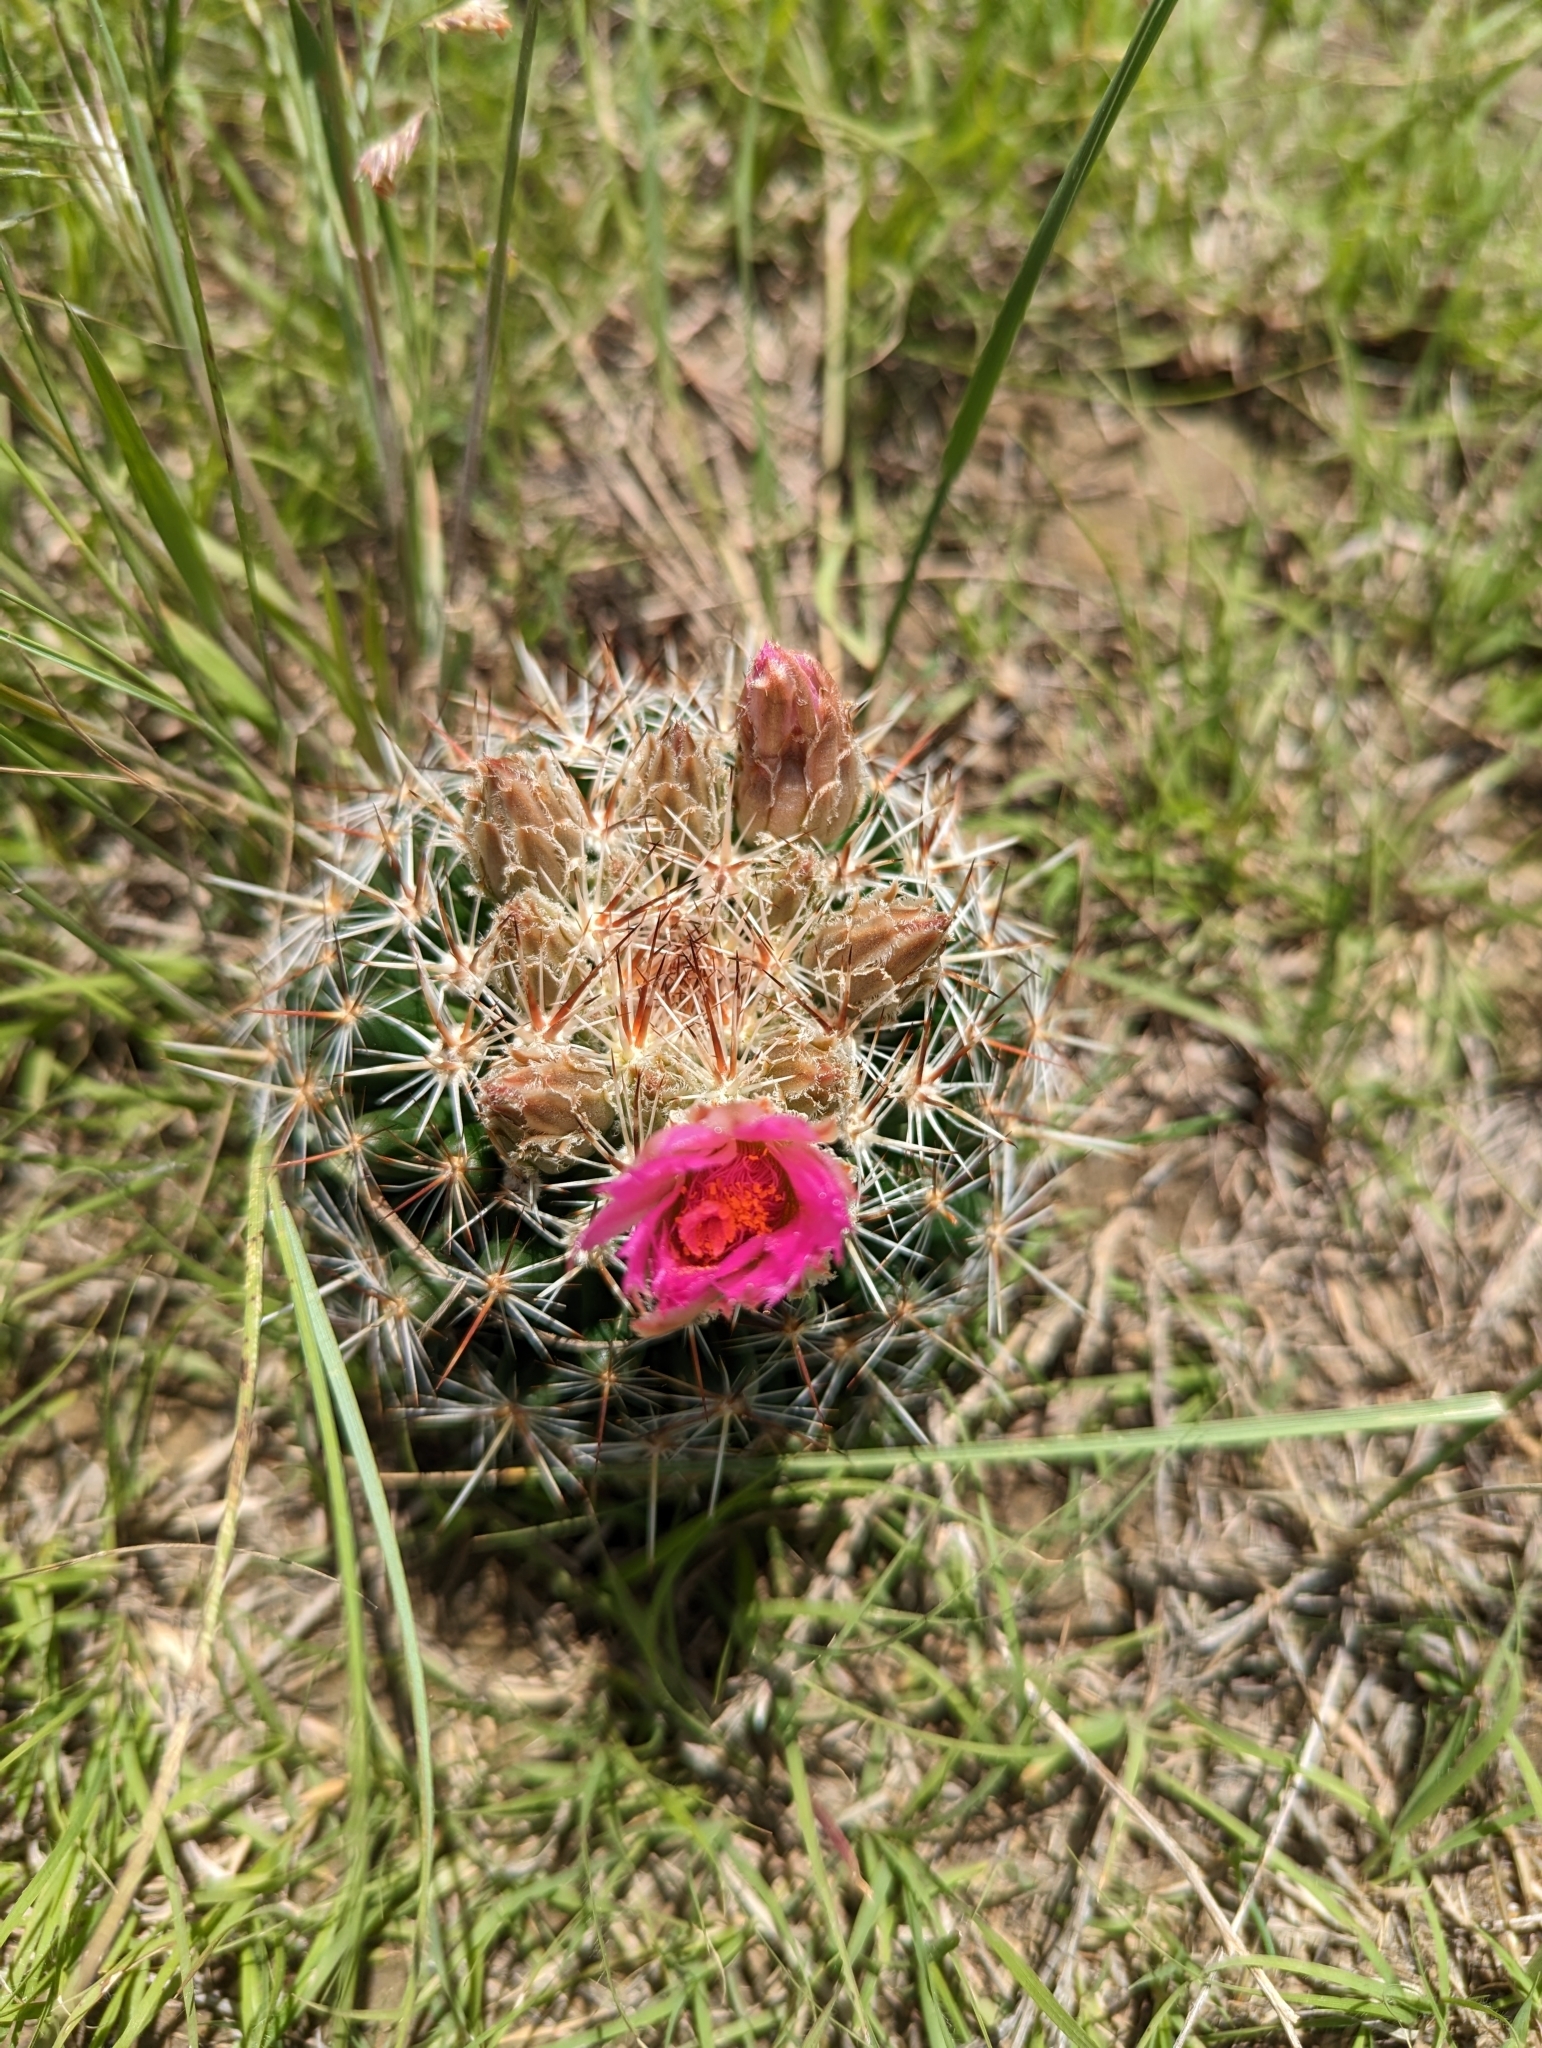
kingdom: Plantae
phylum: Tracheophyta
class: Magnoliopsida
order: Caryophyllales
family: Cactaceae
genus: Pelecyphora
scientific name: Pelecyphora vivipara
